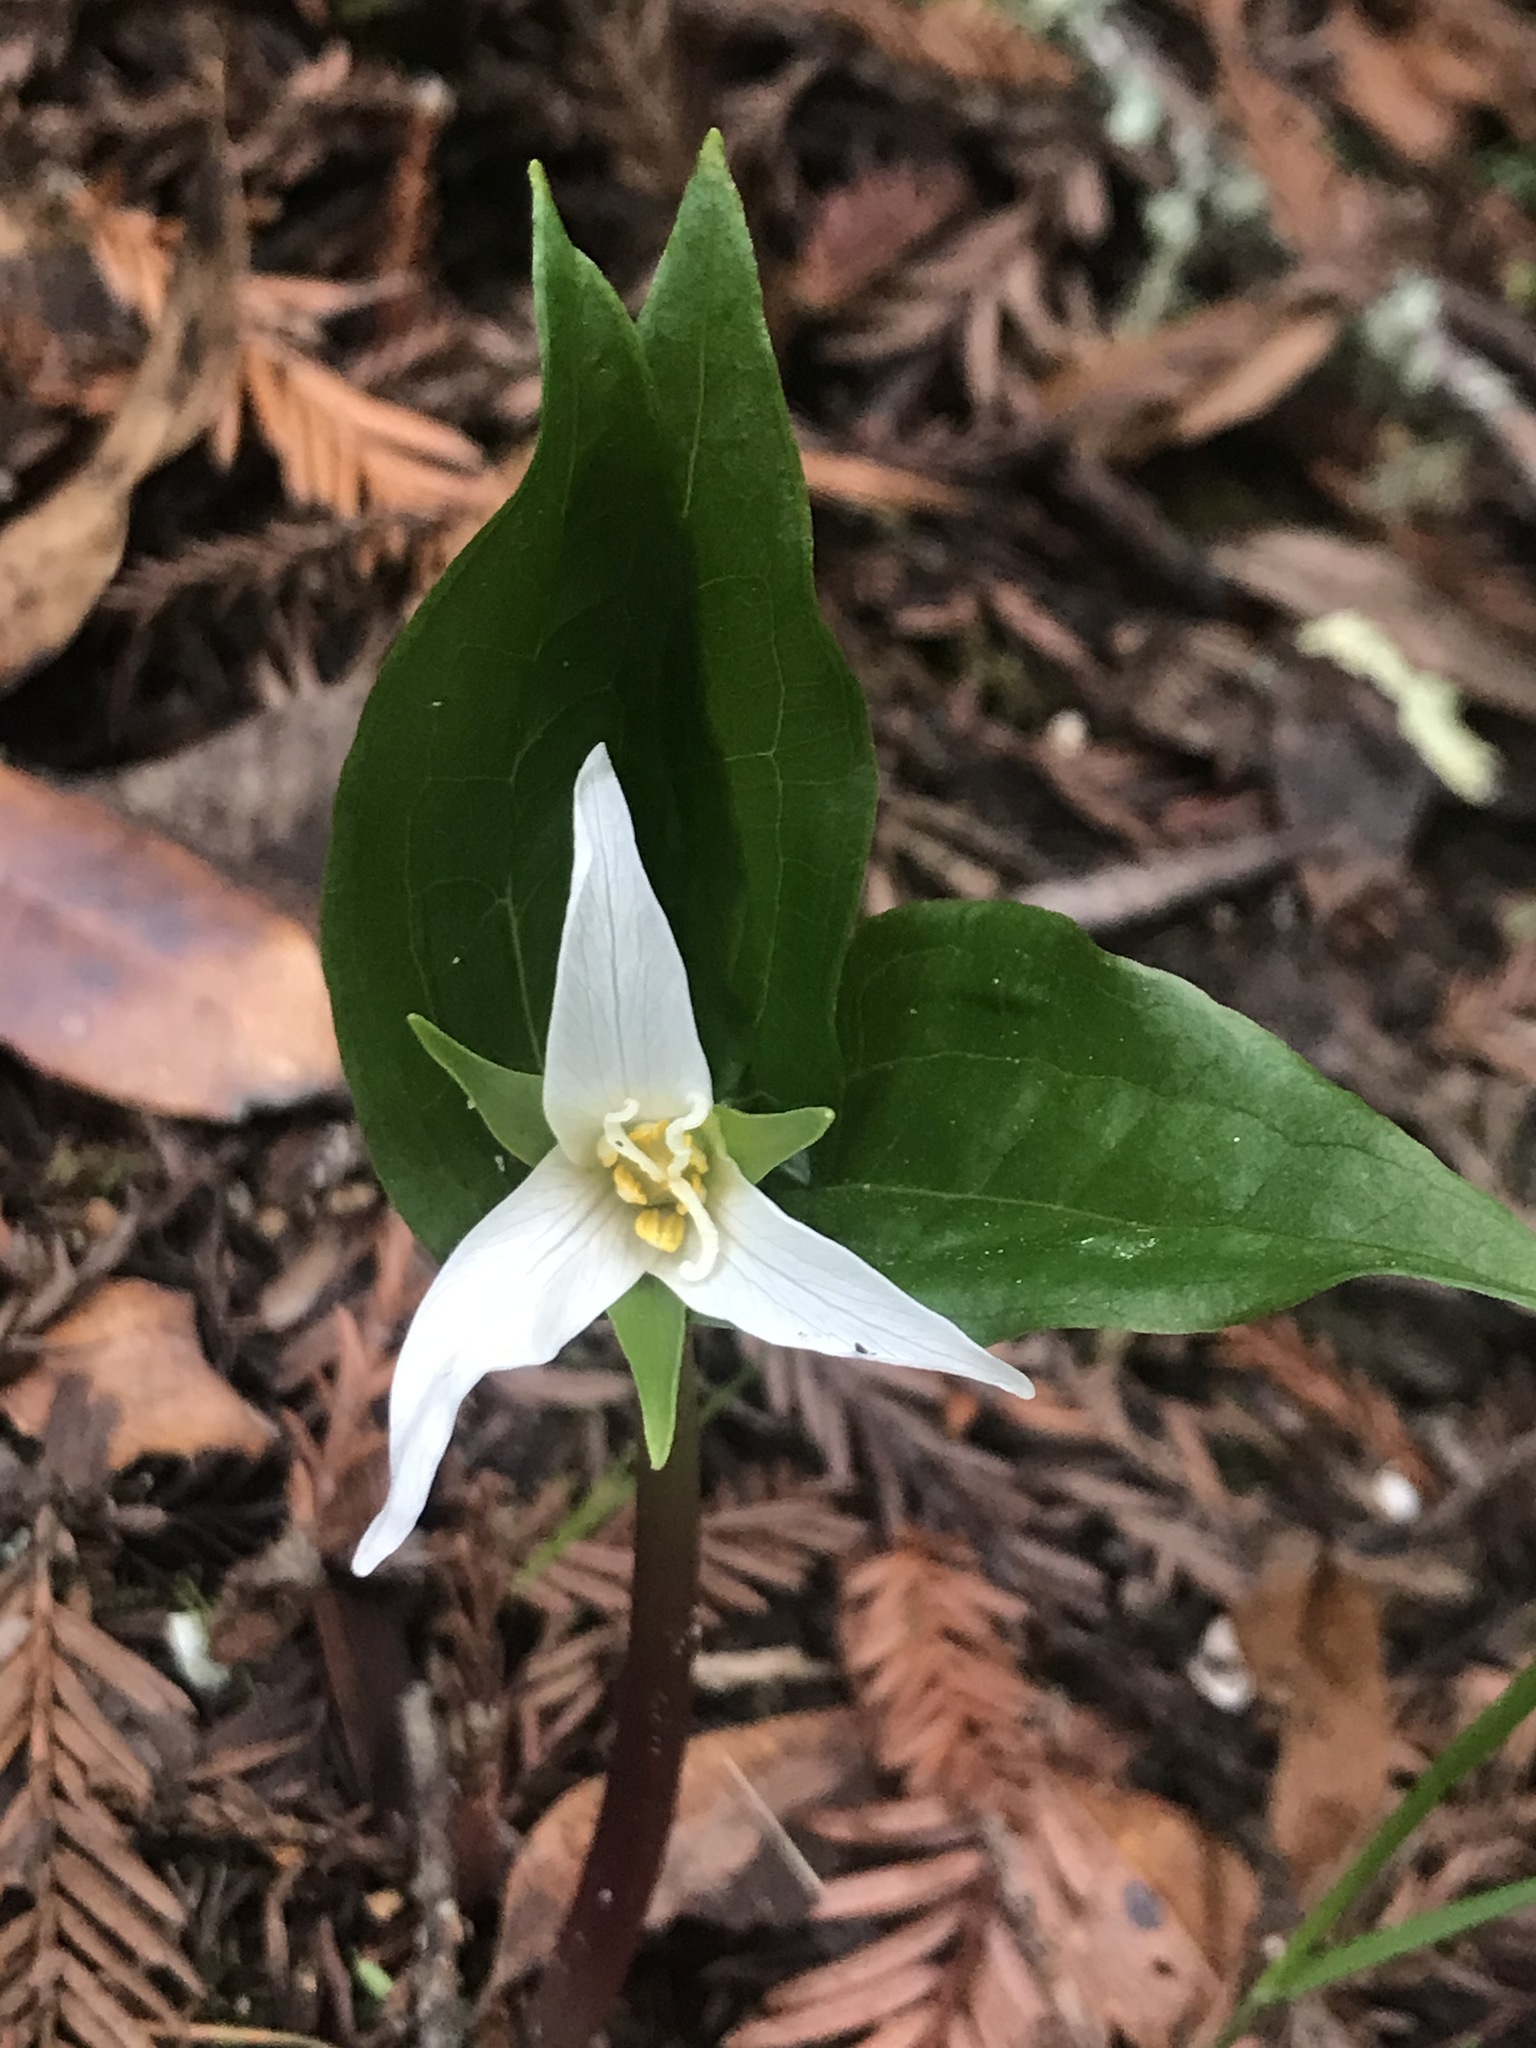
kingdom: Plantae
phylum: Tracheophyta
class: Liliopsida
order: Liliales
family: Melanthiaceae
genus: Trillium
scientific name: Trillium ovatum
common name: Pacific trillium
